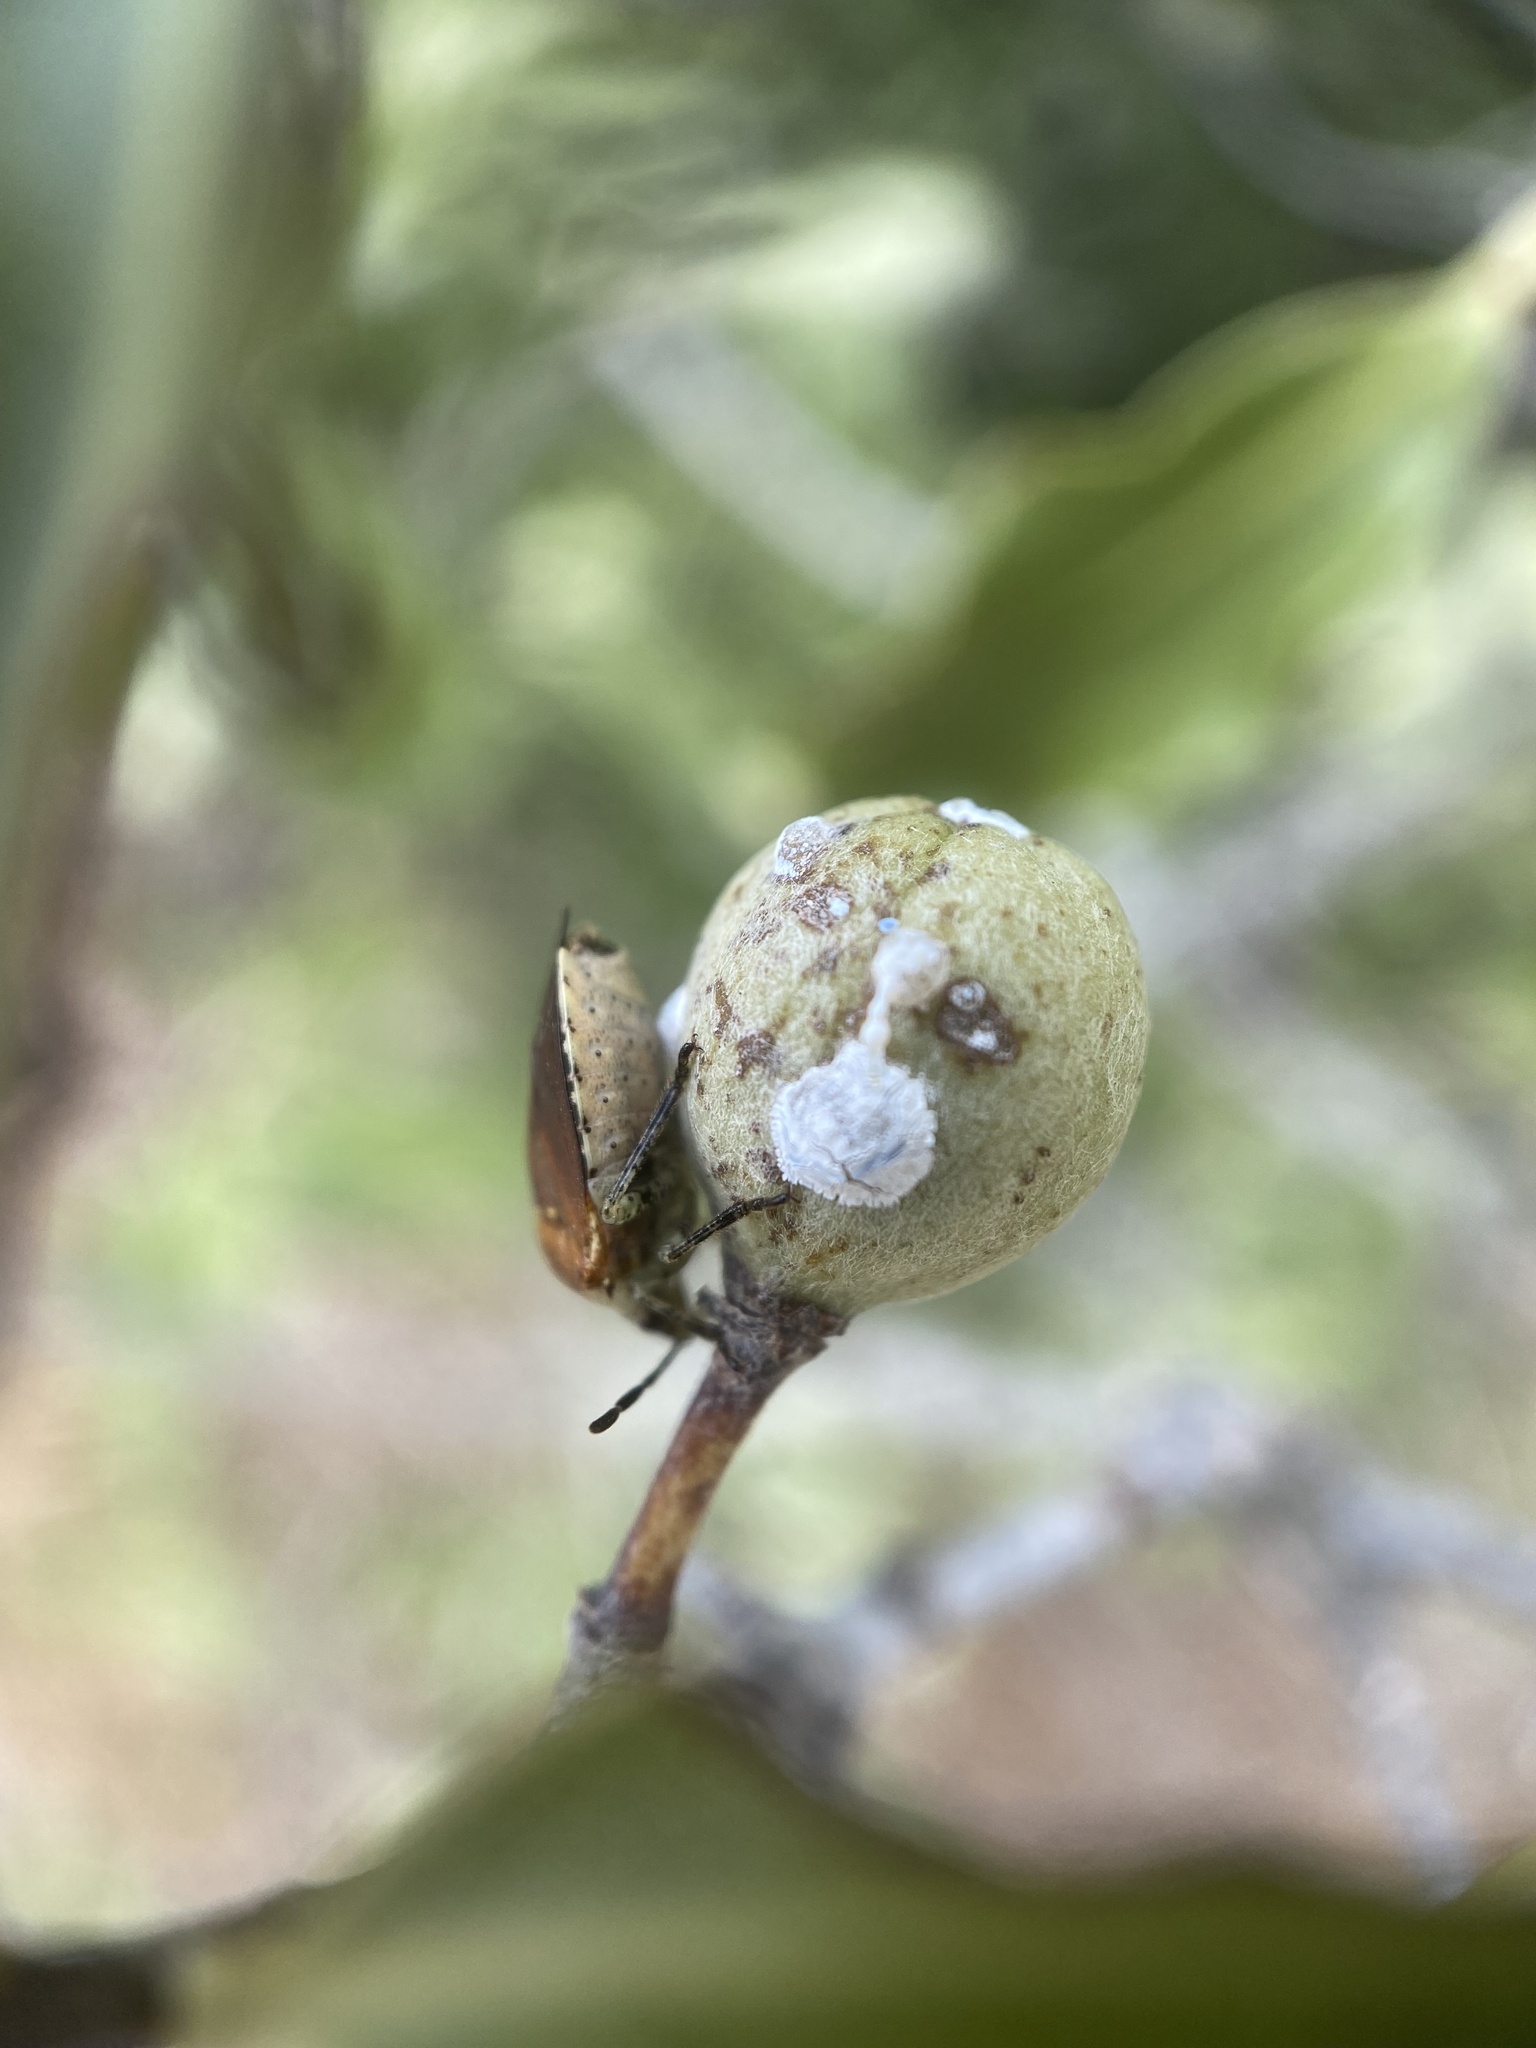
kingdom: Animalia
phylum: Arthropoda
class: Insecta
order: Hemiptera
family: Pentatomidae
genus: Monteithiella
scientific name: Monteithiella
